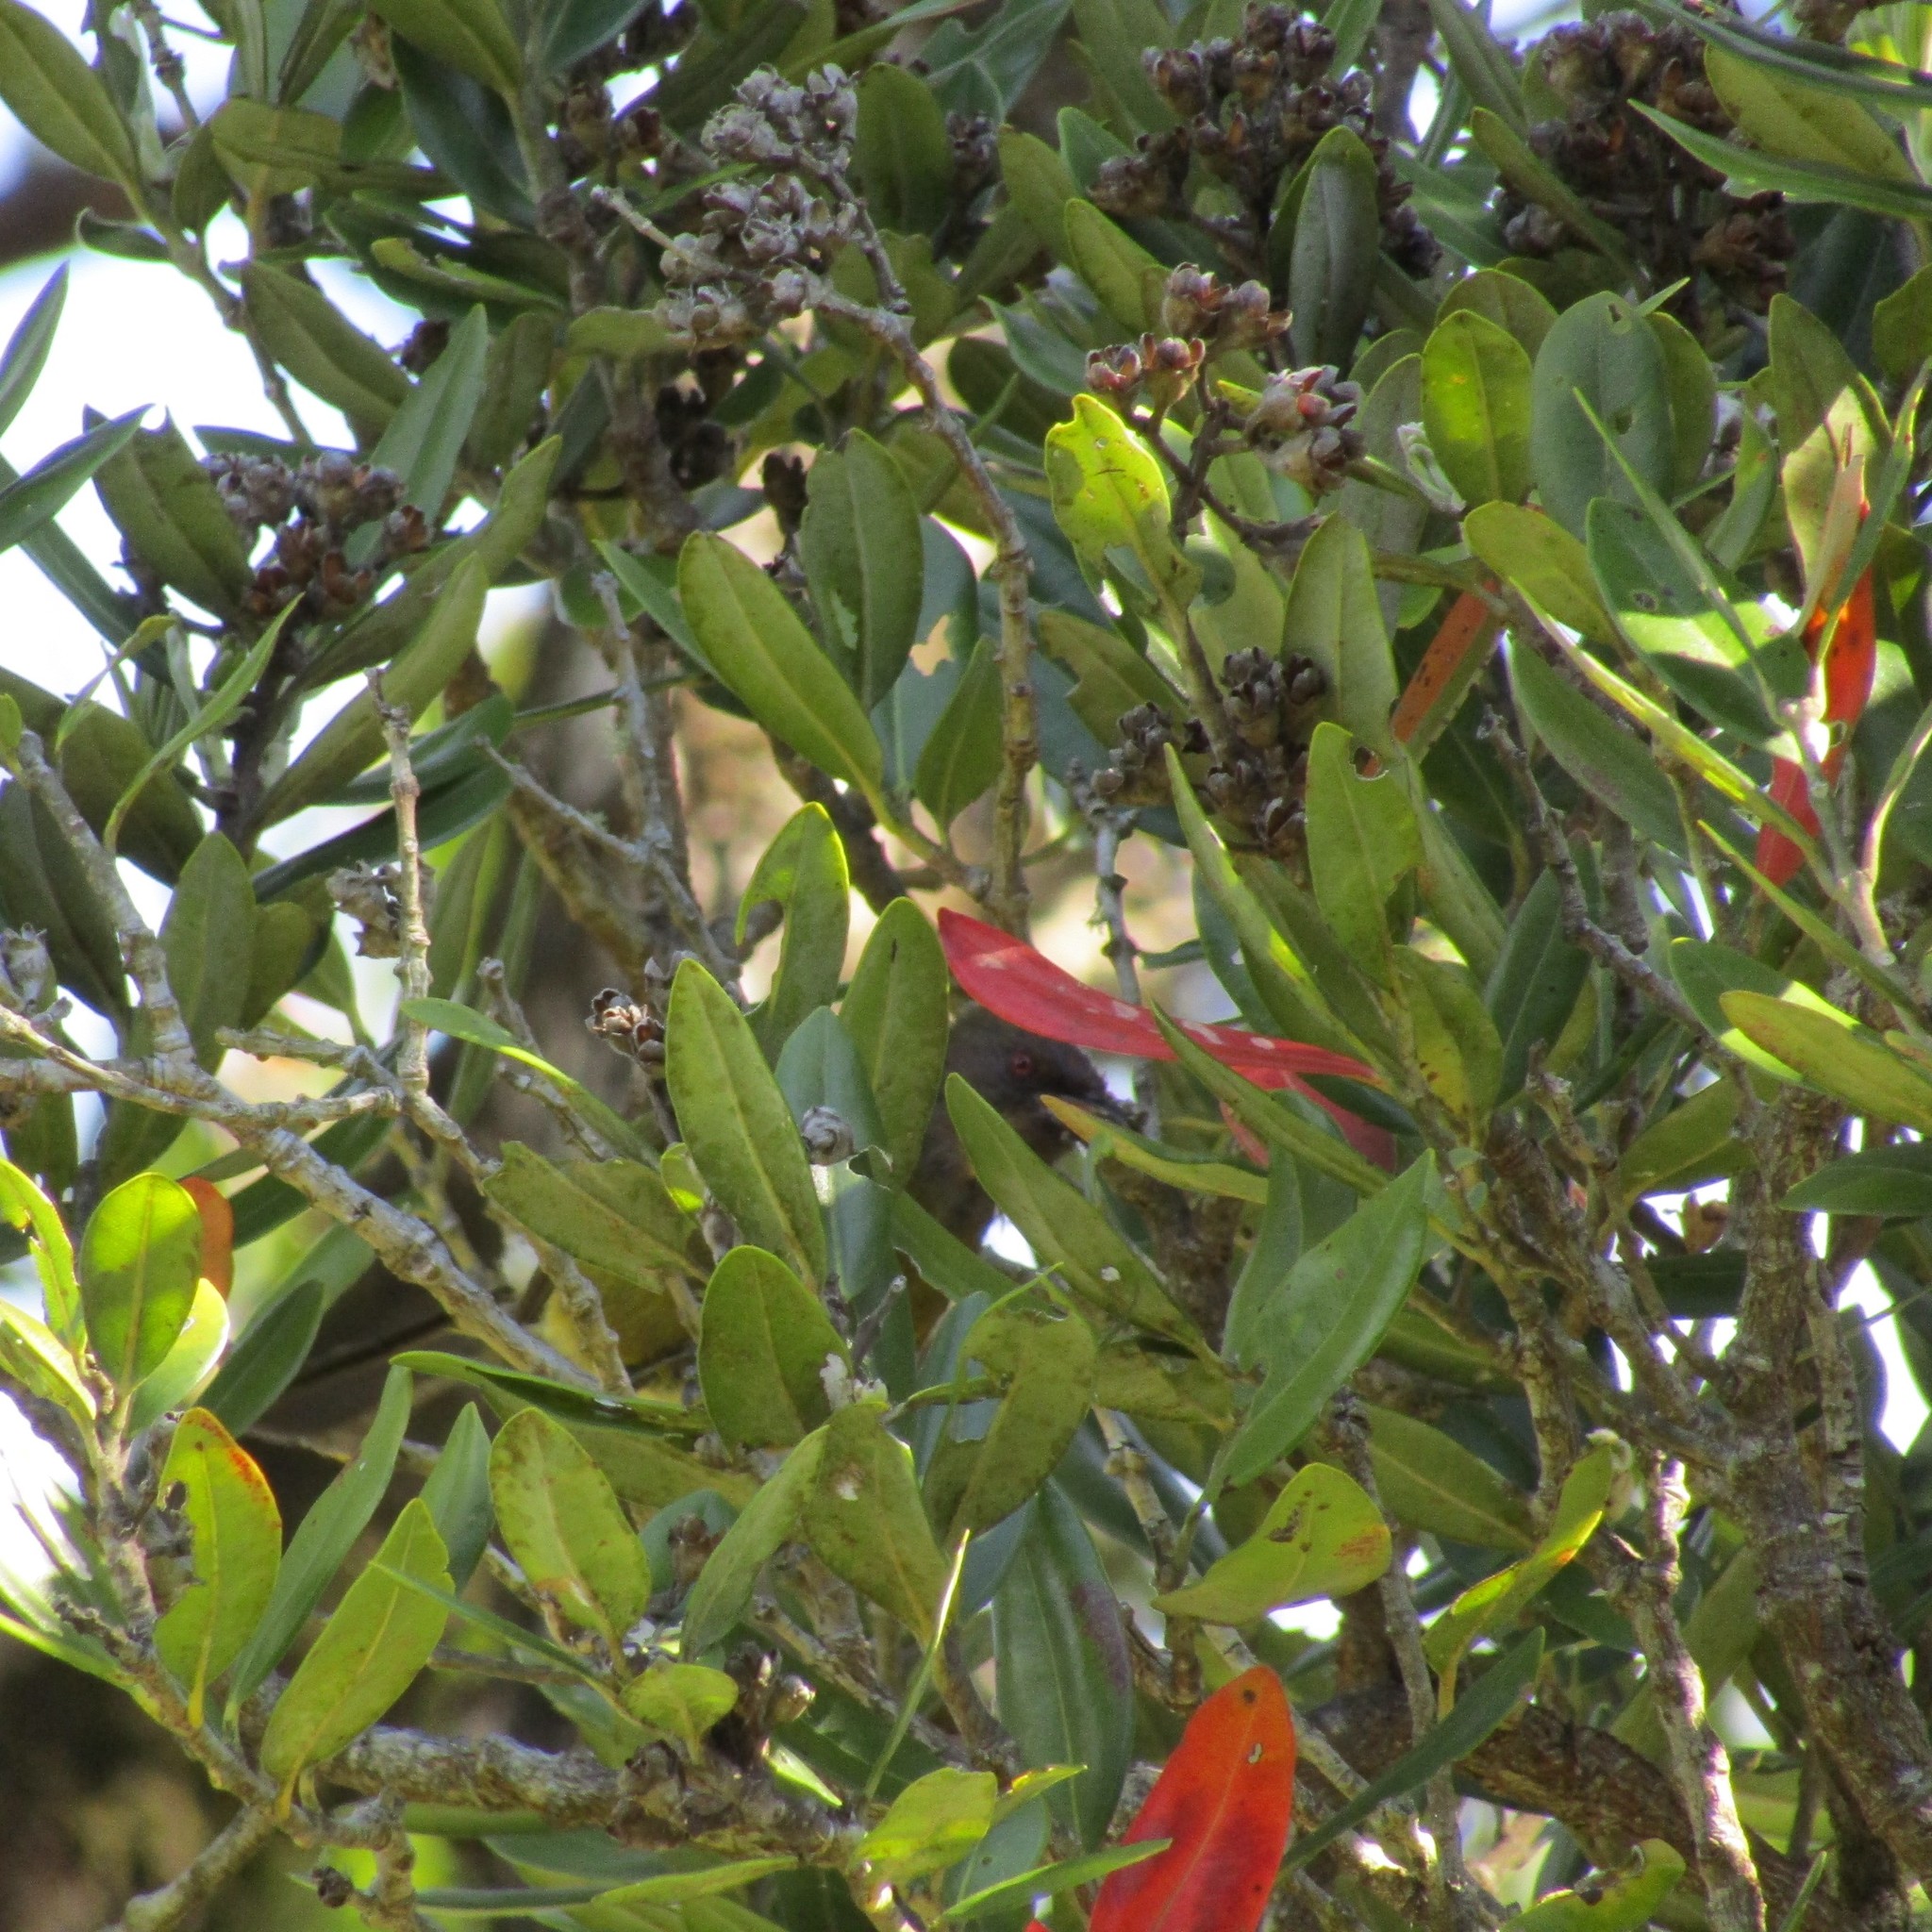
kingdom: Animalia
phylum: Chordata
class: Aves
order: Passeriformes
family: Meliphagidae
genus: Anthornis
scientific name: Anthornis melanura
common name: New zealand bellbird
